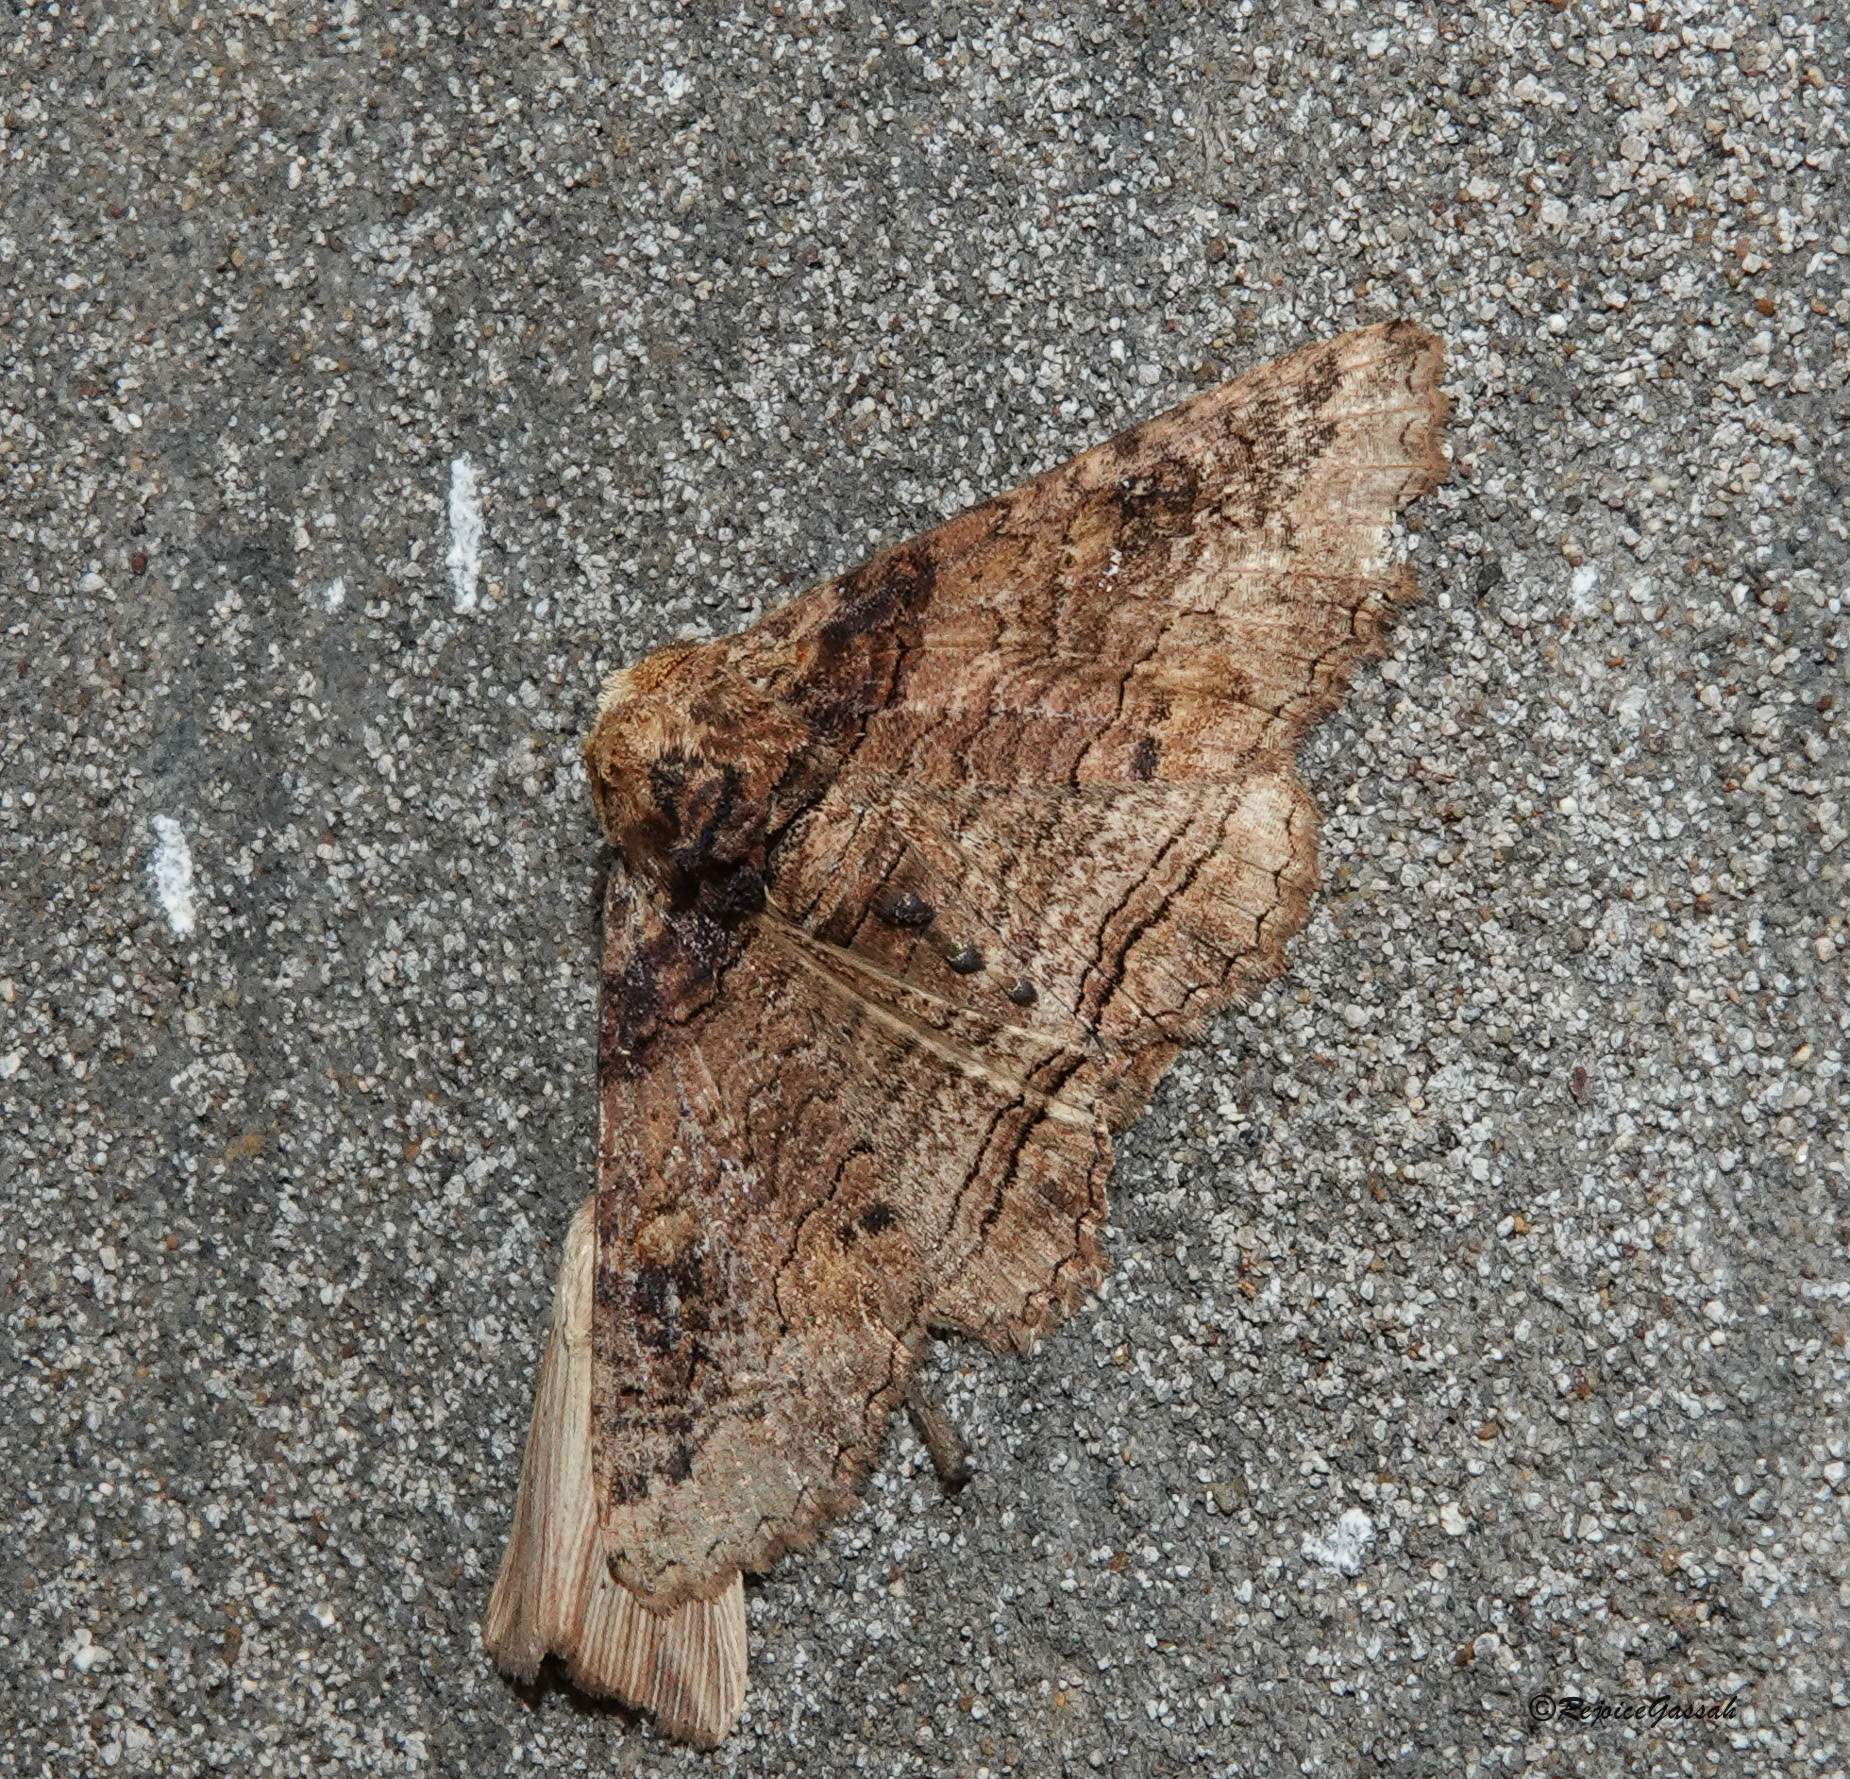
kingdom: Animalia
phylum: Arthropoda
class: Insecta
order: Lepidoptera
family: Erebidae
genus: Pericyma
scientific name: Pericyma cruegeri
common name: Poinciana looper
